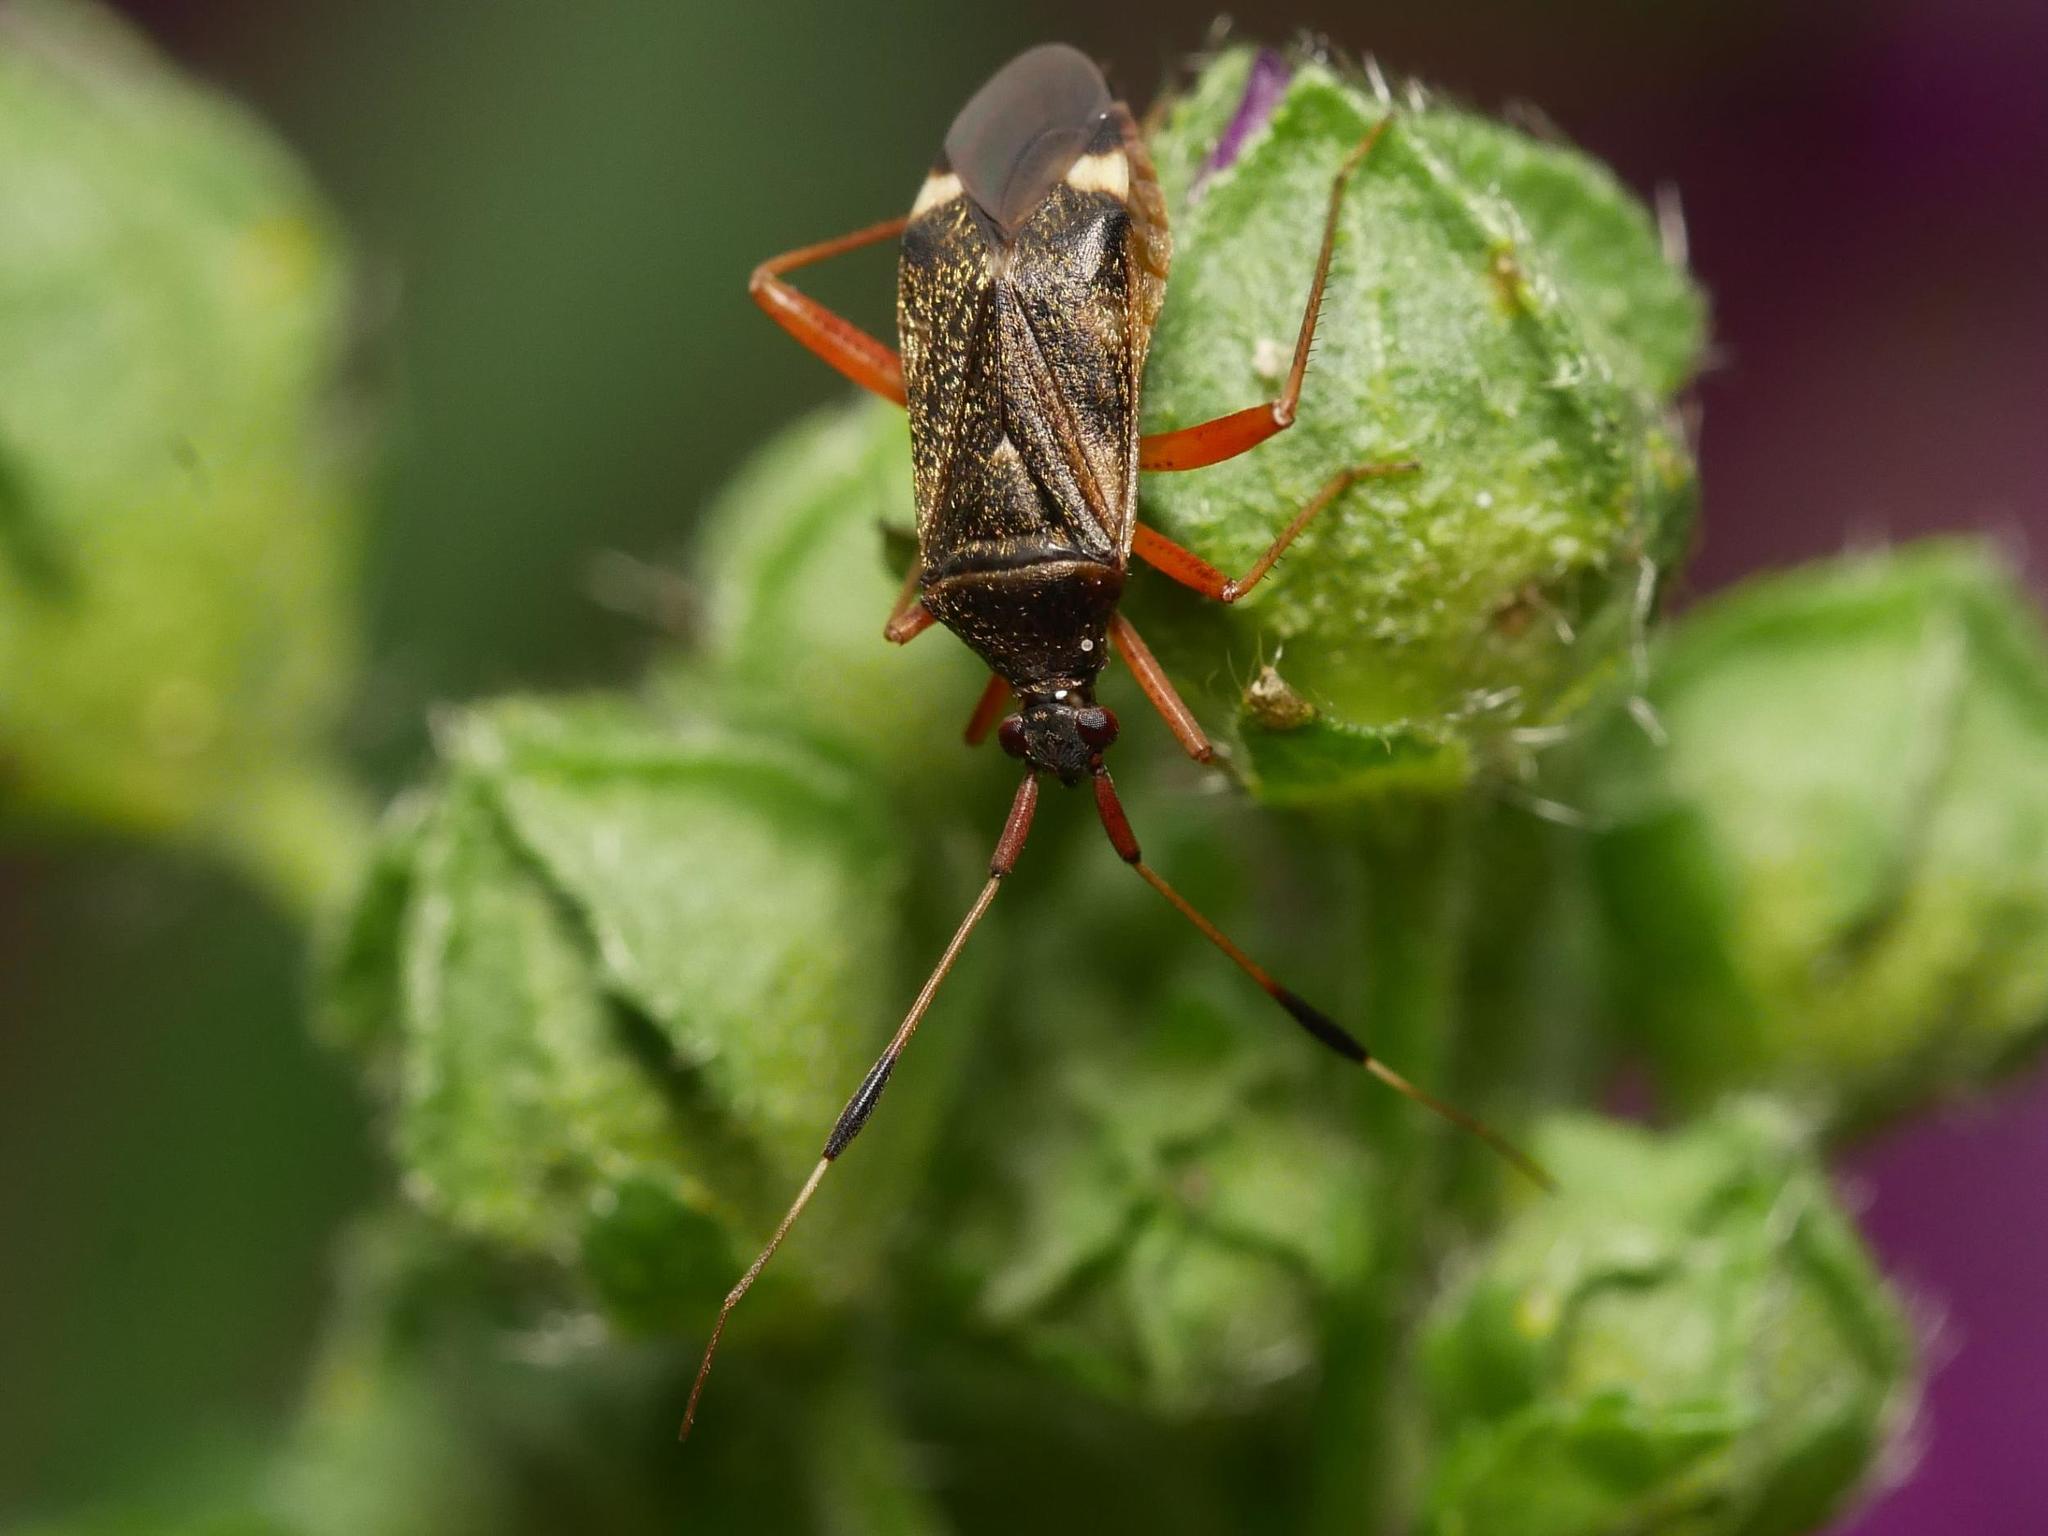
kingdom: Animalia
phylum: Arthropoda
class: Insecta
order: Hemiptera
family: Miridae
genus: Closterotomus
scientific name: Closterotomus biclavatus
